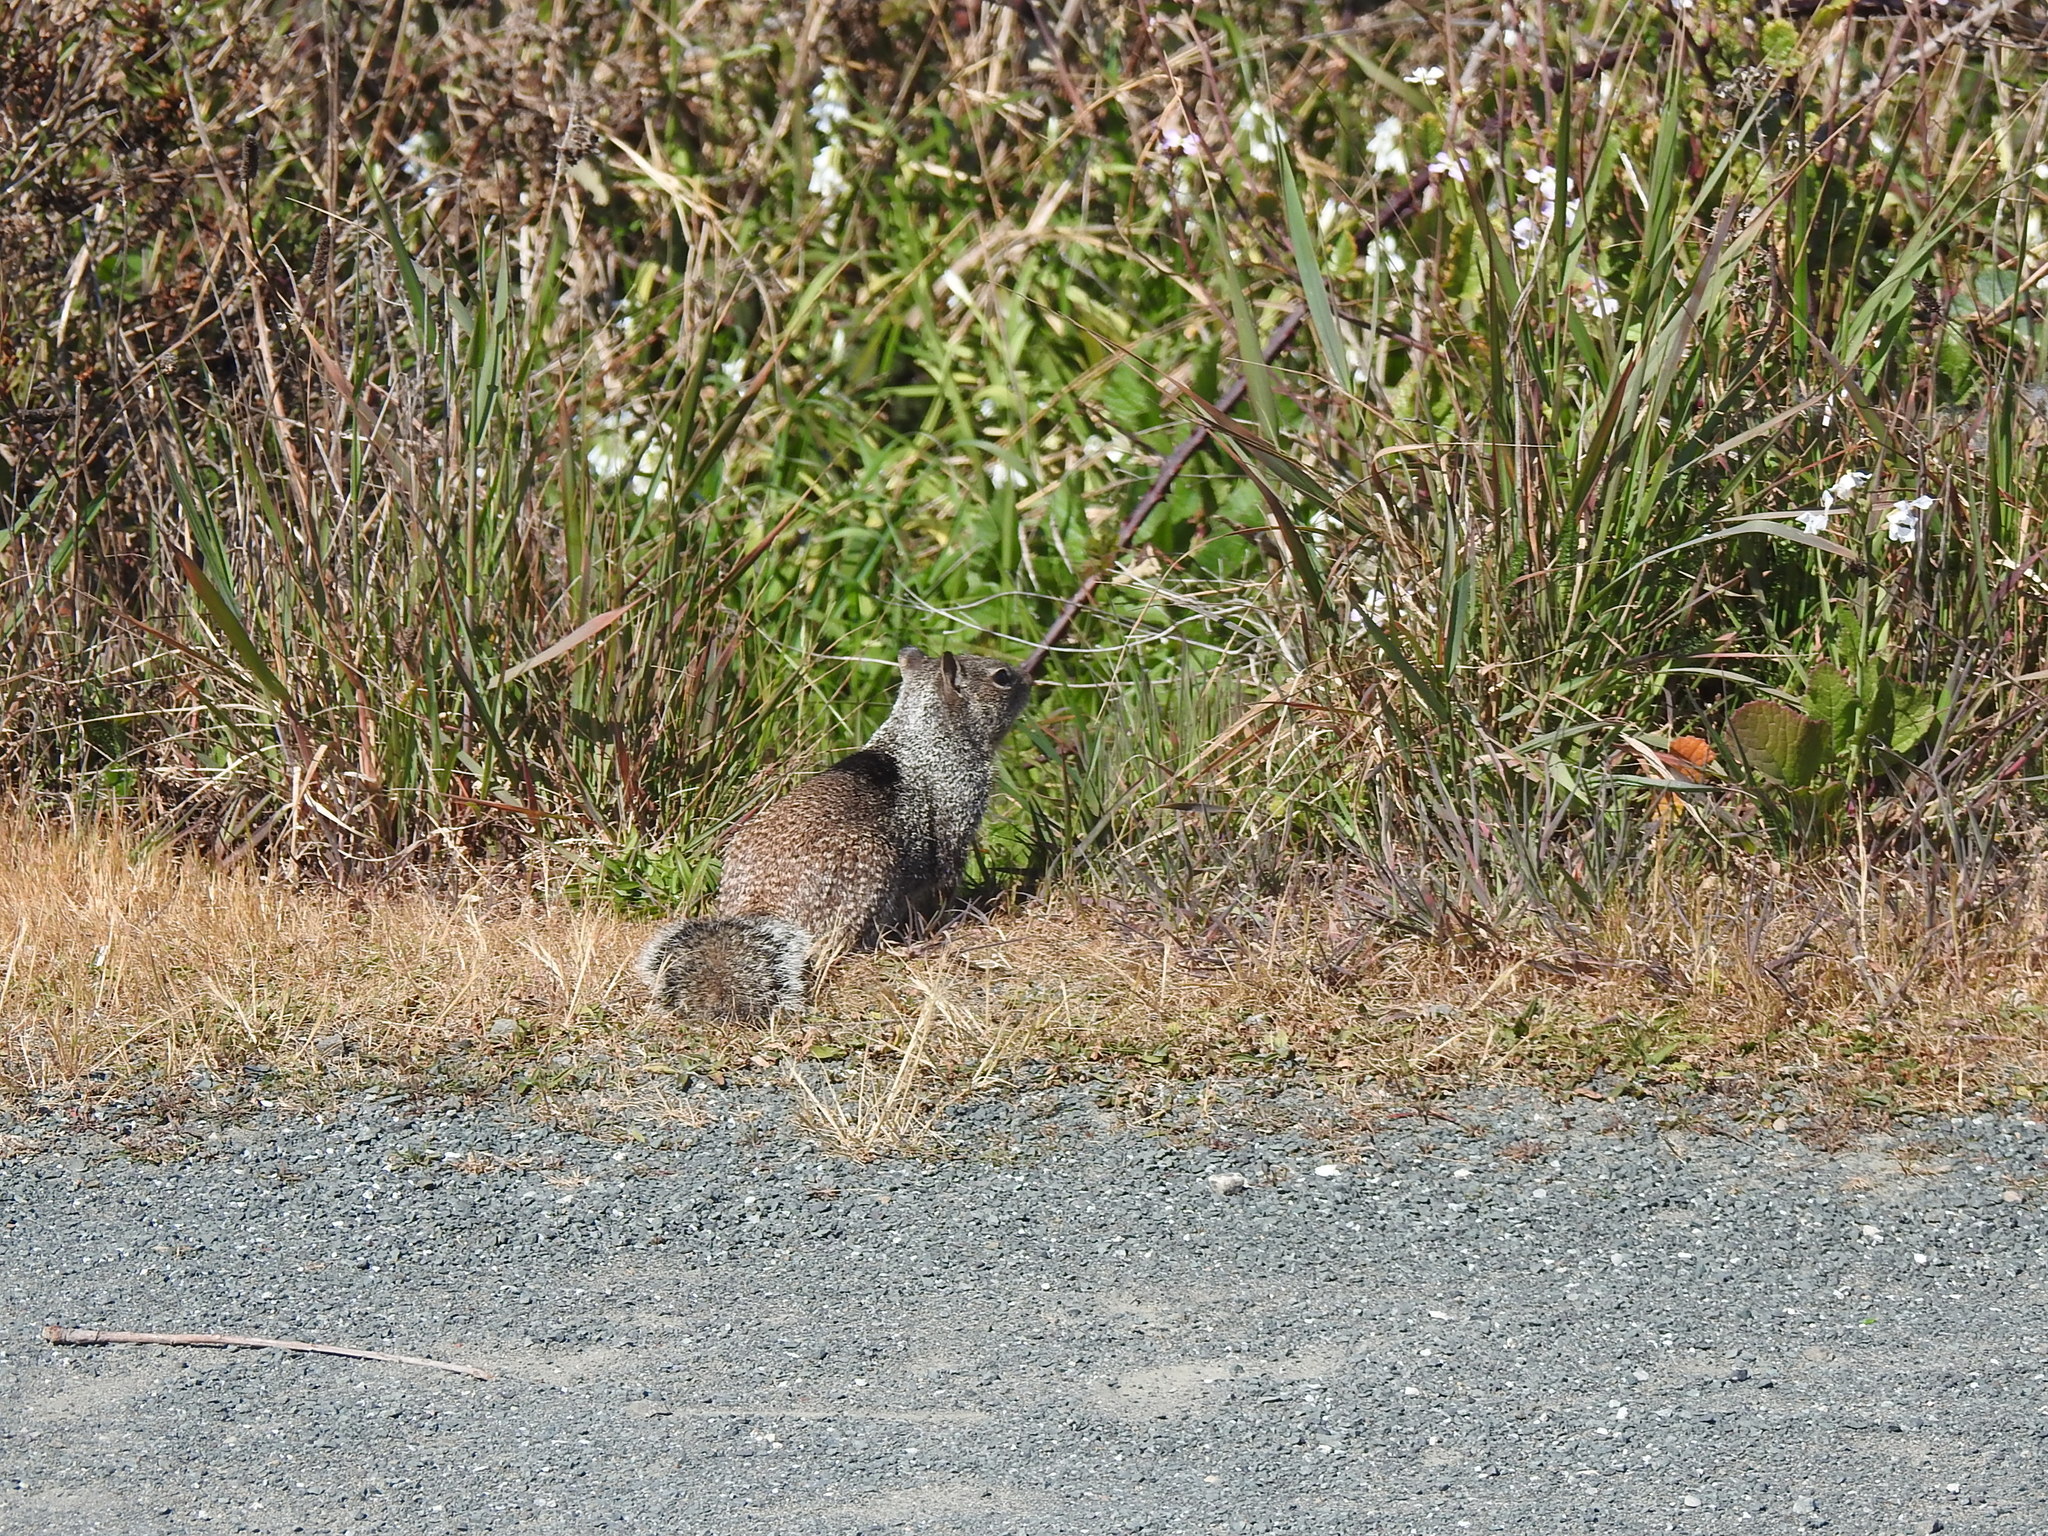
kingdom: Animalia
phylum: Chordata
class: Mammalia
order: Rodentia
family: Sciuridae
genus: Otospermophilus
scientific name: Otospermophilus beecheyi
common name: California ground squirrel
